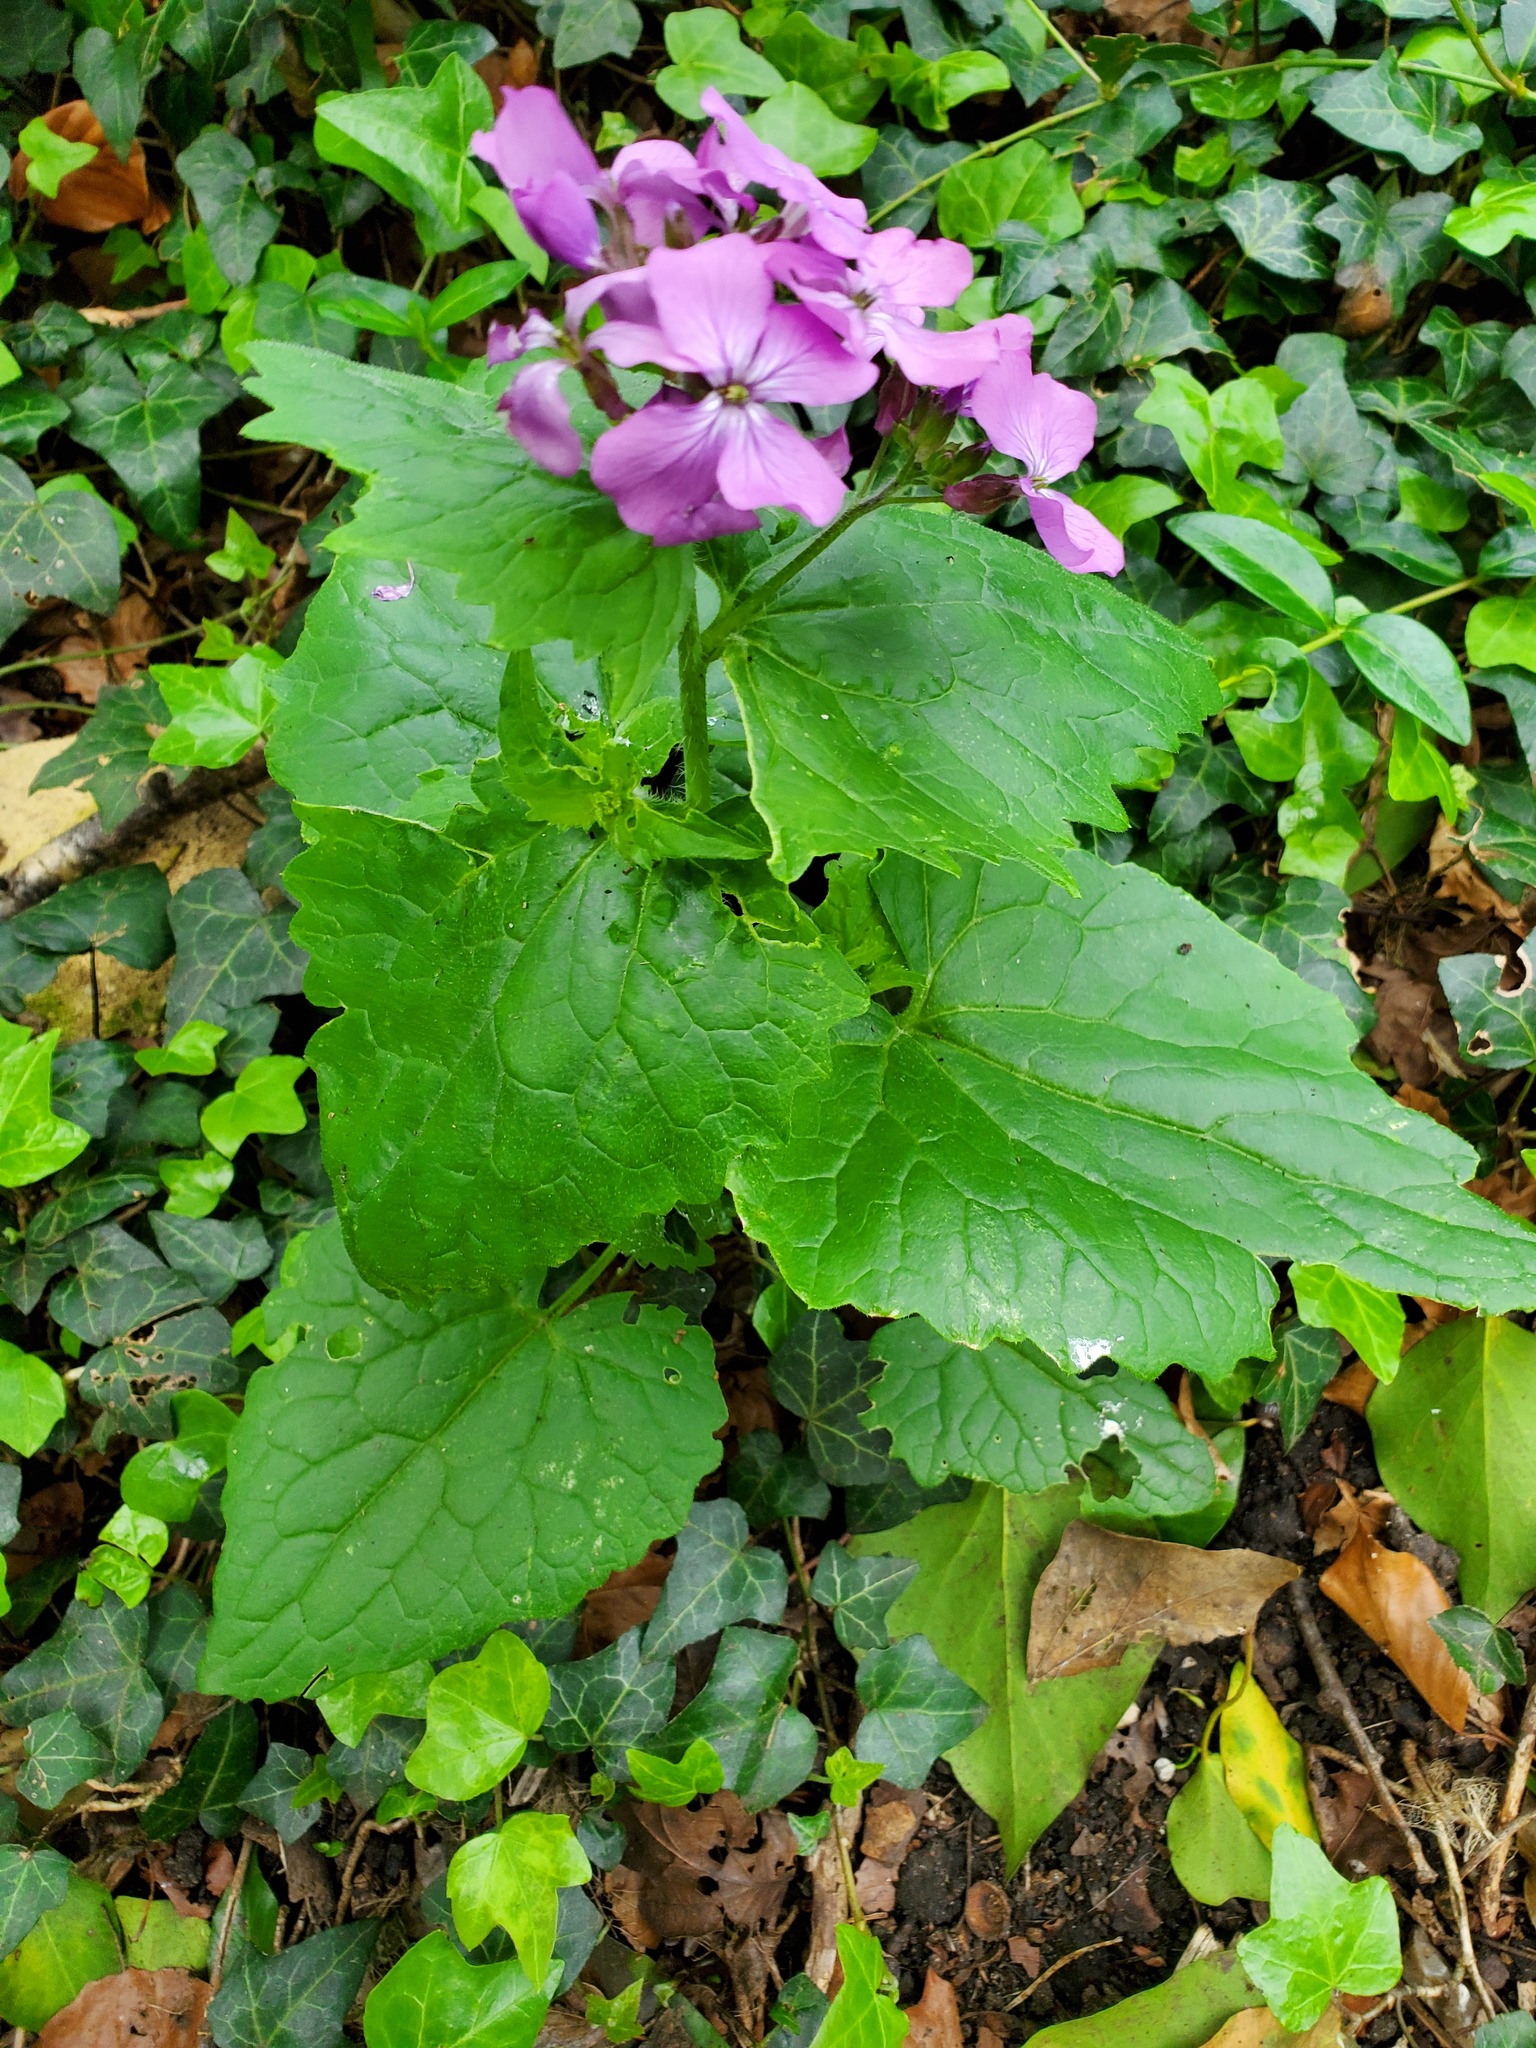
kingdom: Plantae
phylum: Tracheophyta
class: Magnoliopsida
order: Brassicales
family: Brassicaceae
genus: Lunaria
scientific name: Lunaria annua
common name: Honesty
